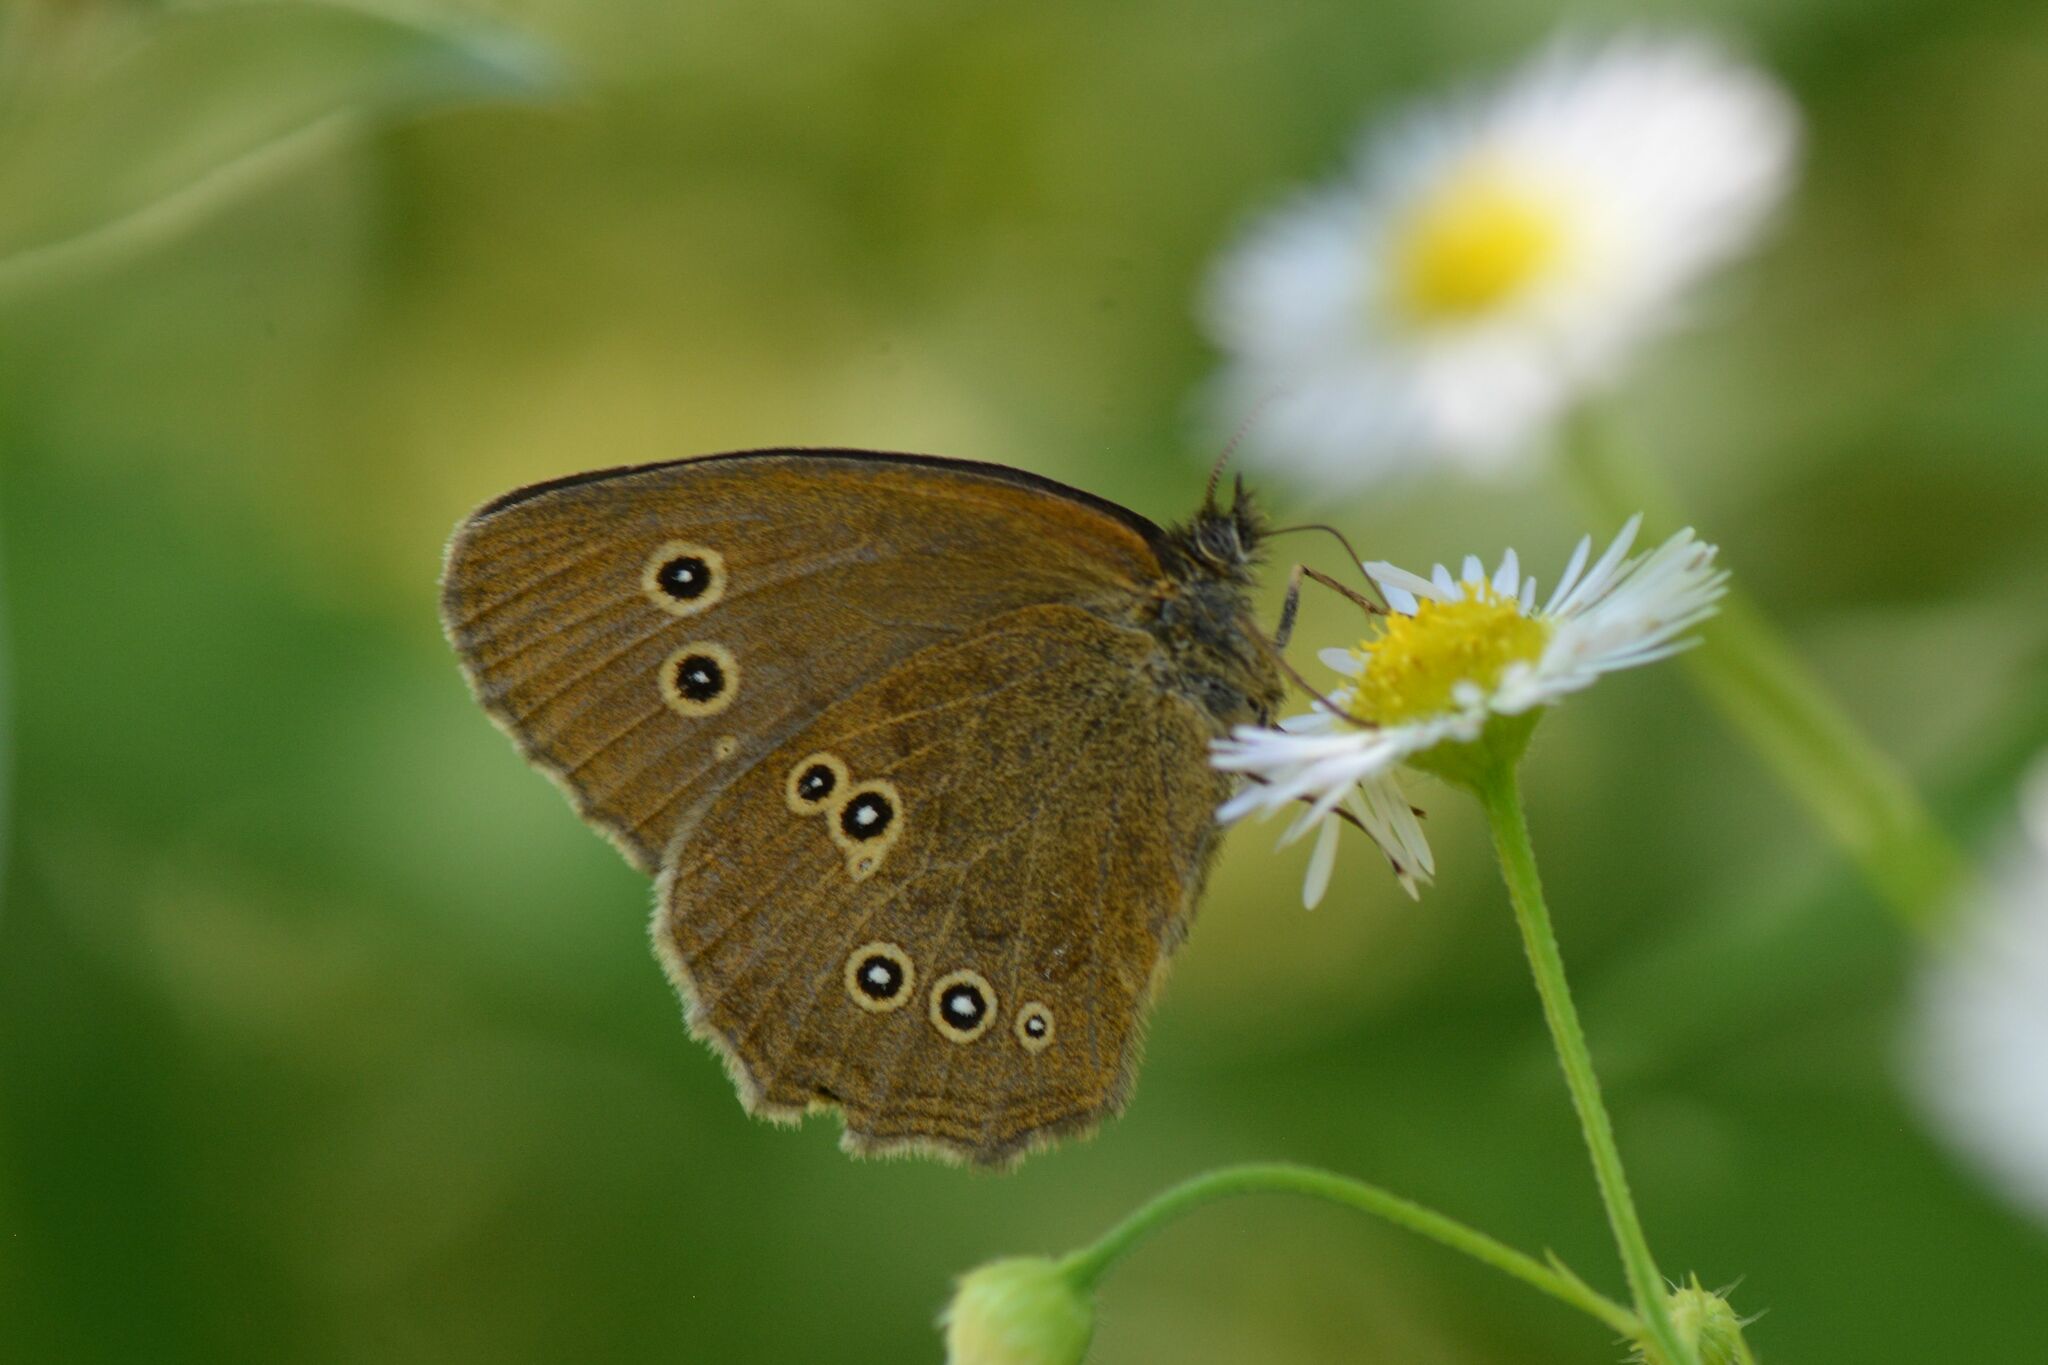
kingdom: Animalia
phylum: Arthropoda
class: Insecta
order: Lepidoptera
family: Nymphalidae
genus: Aphantopus
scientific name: Aphantopus hyperantus
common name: Ringlet
